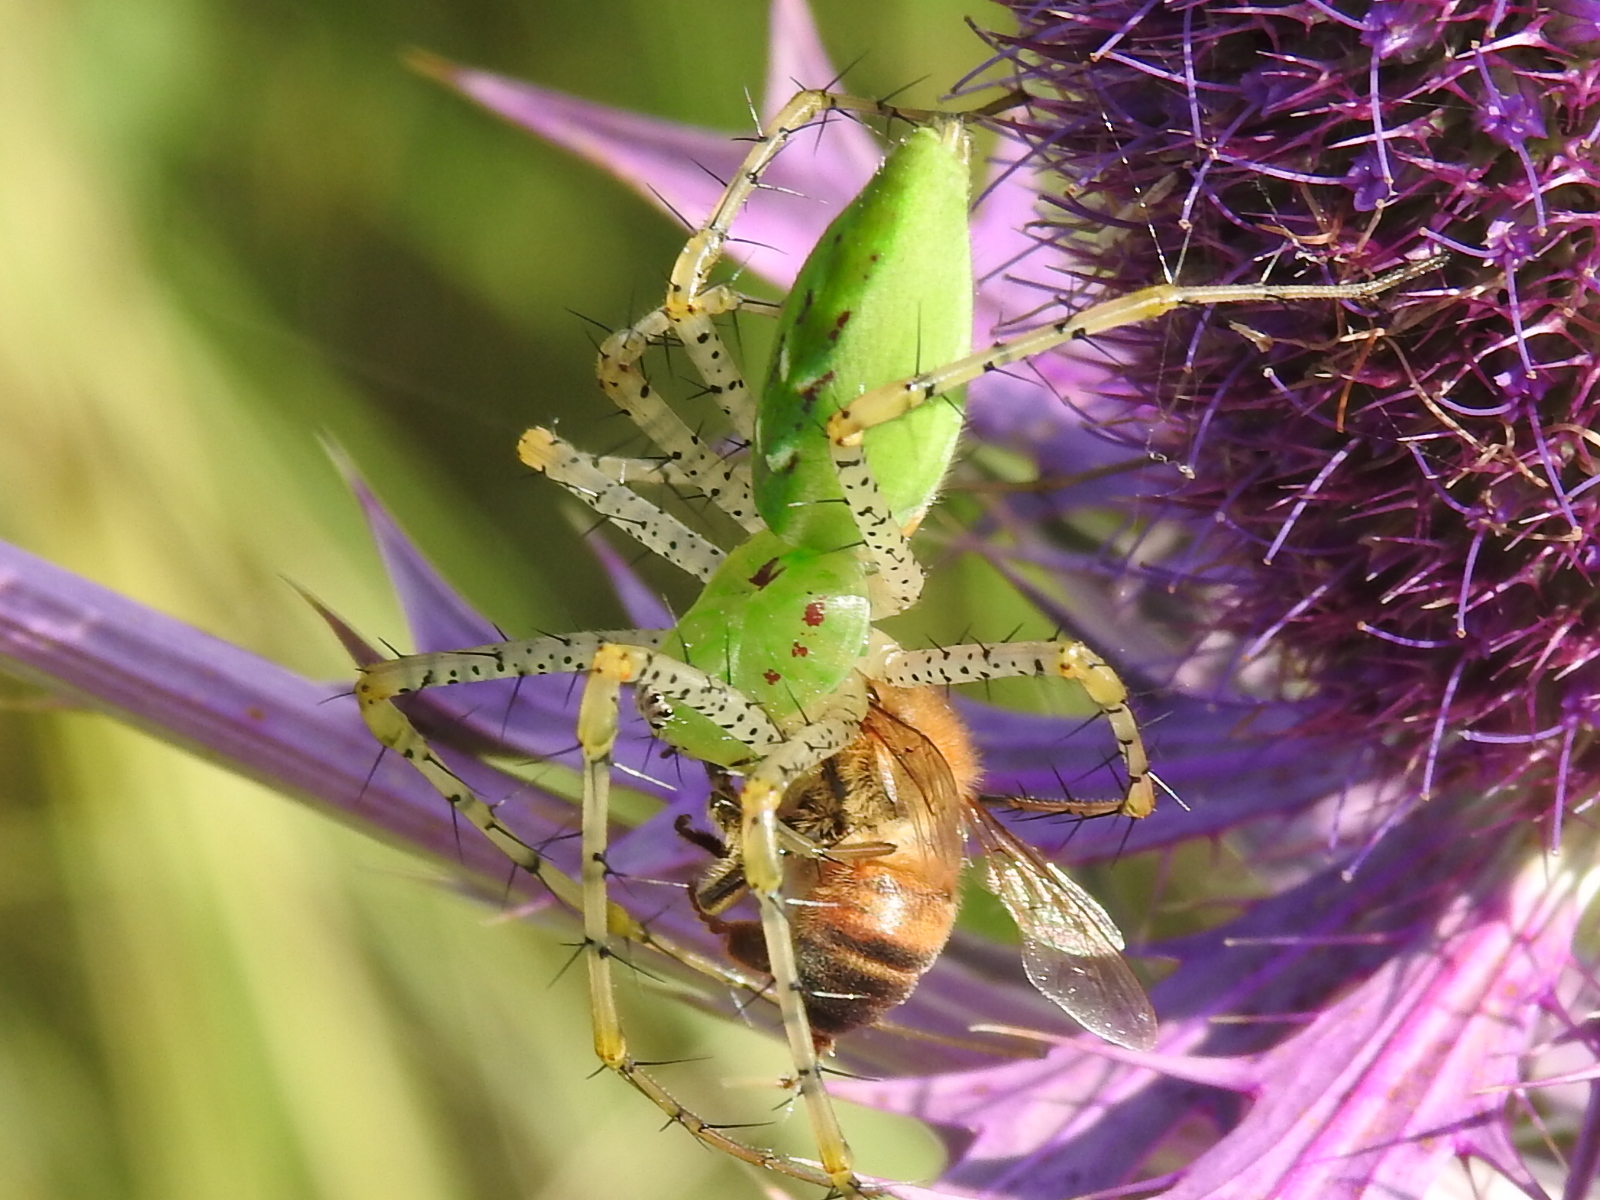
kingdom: Animalia
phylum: Arthropoda
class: Arachnida
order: Araneae
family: Oxyopidae
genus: Peucetia
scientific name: Peucetia viridans
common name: Lynx spiders
